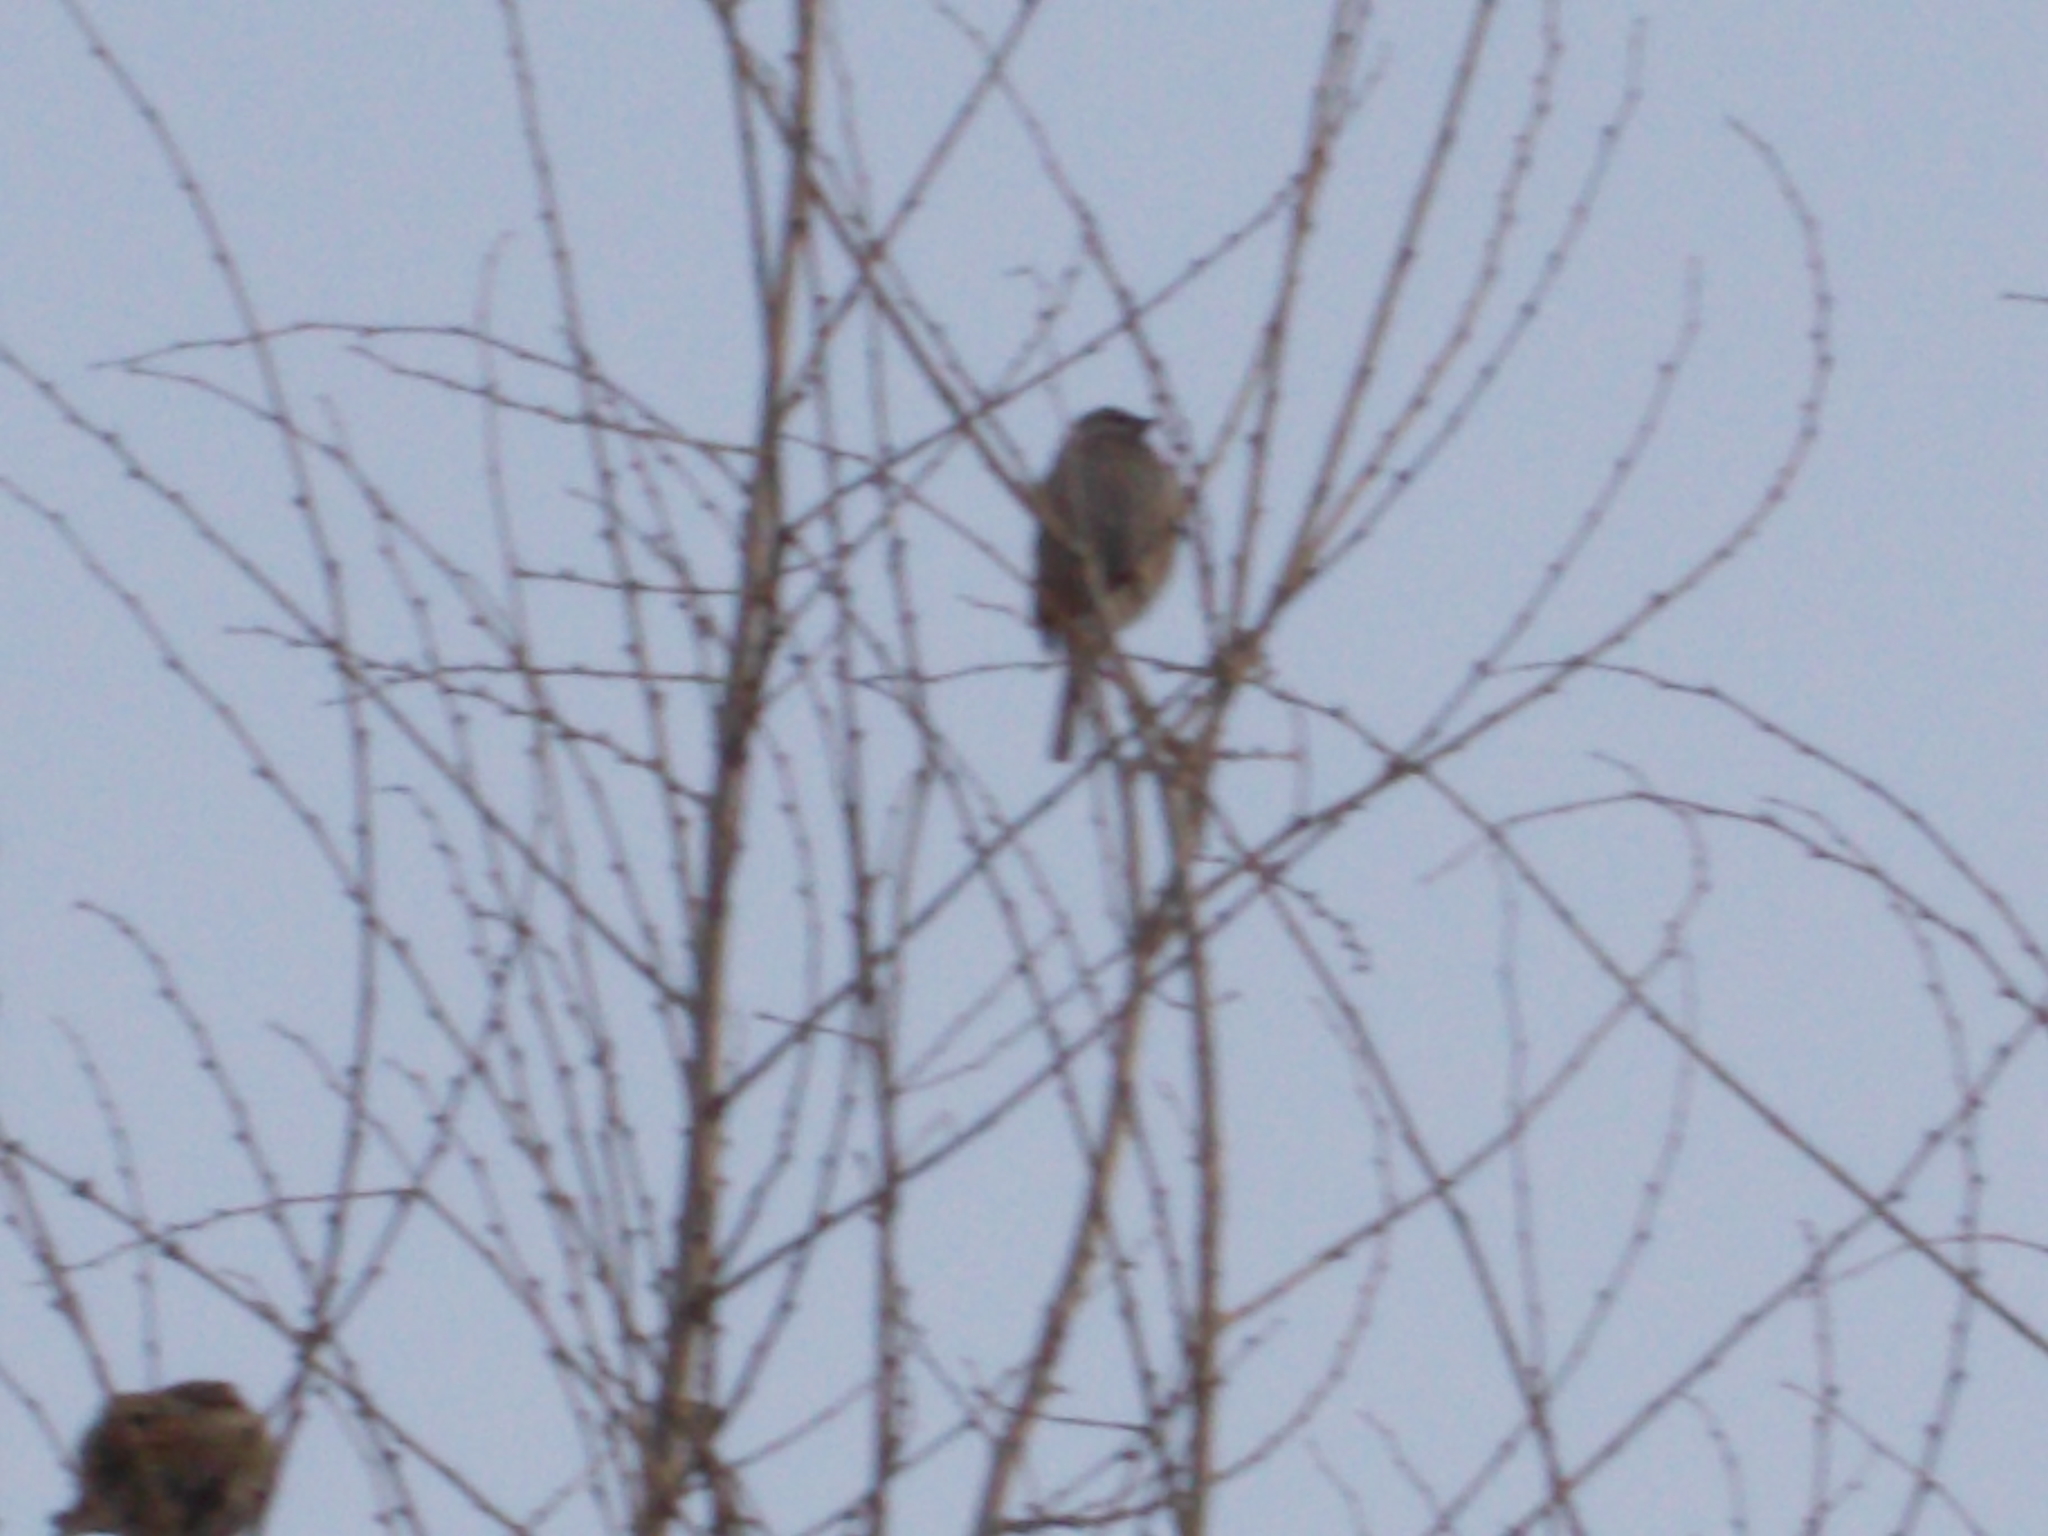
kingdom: Animalia
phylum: Chordata
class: Aves
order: Passeriformes
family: Passeridae
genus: Passer
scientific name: Passer domesticus
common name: House sparrow
